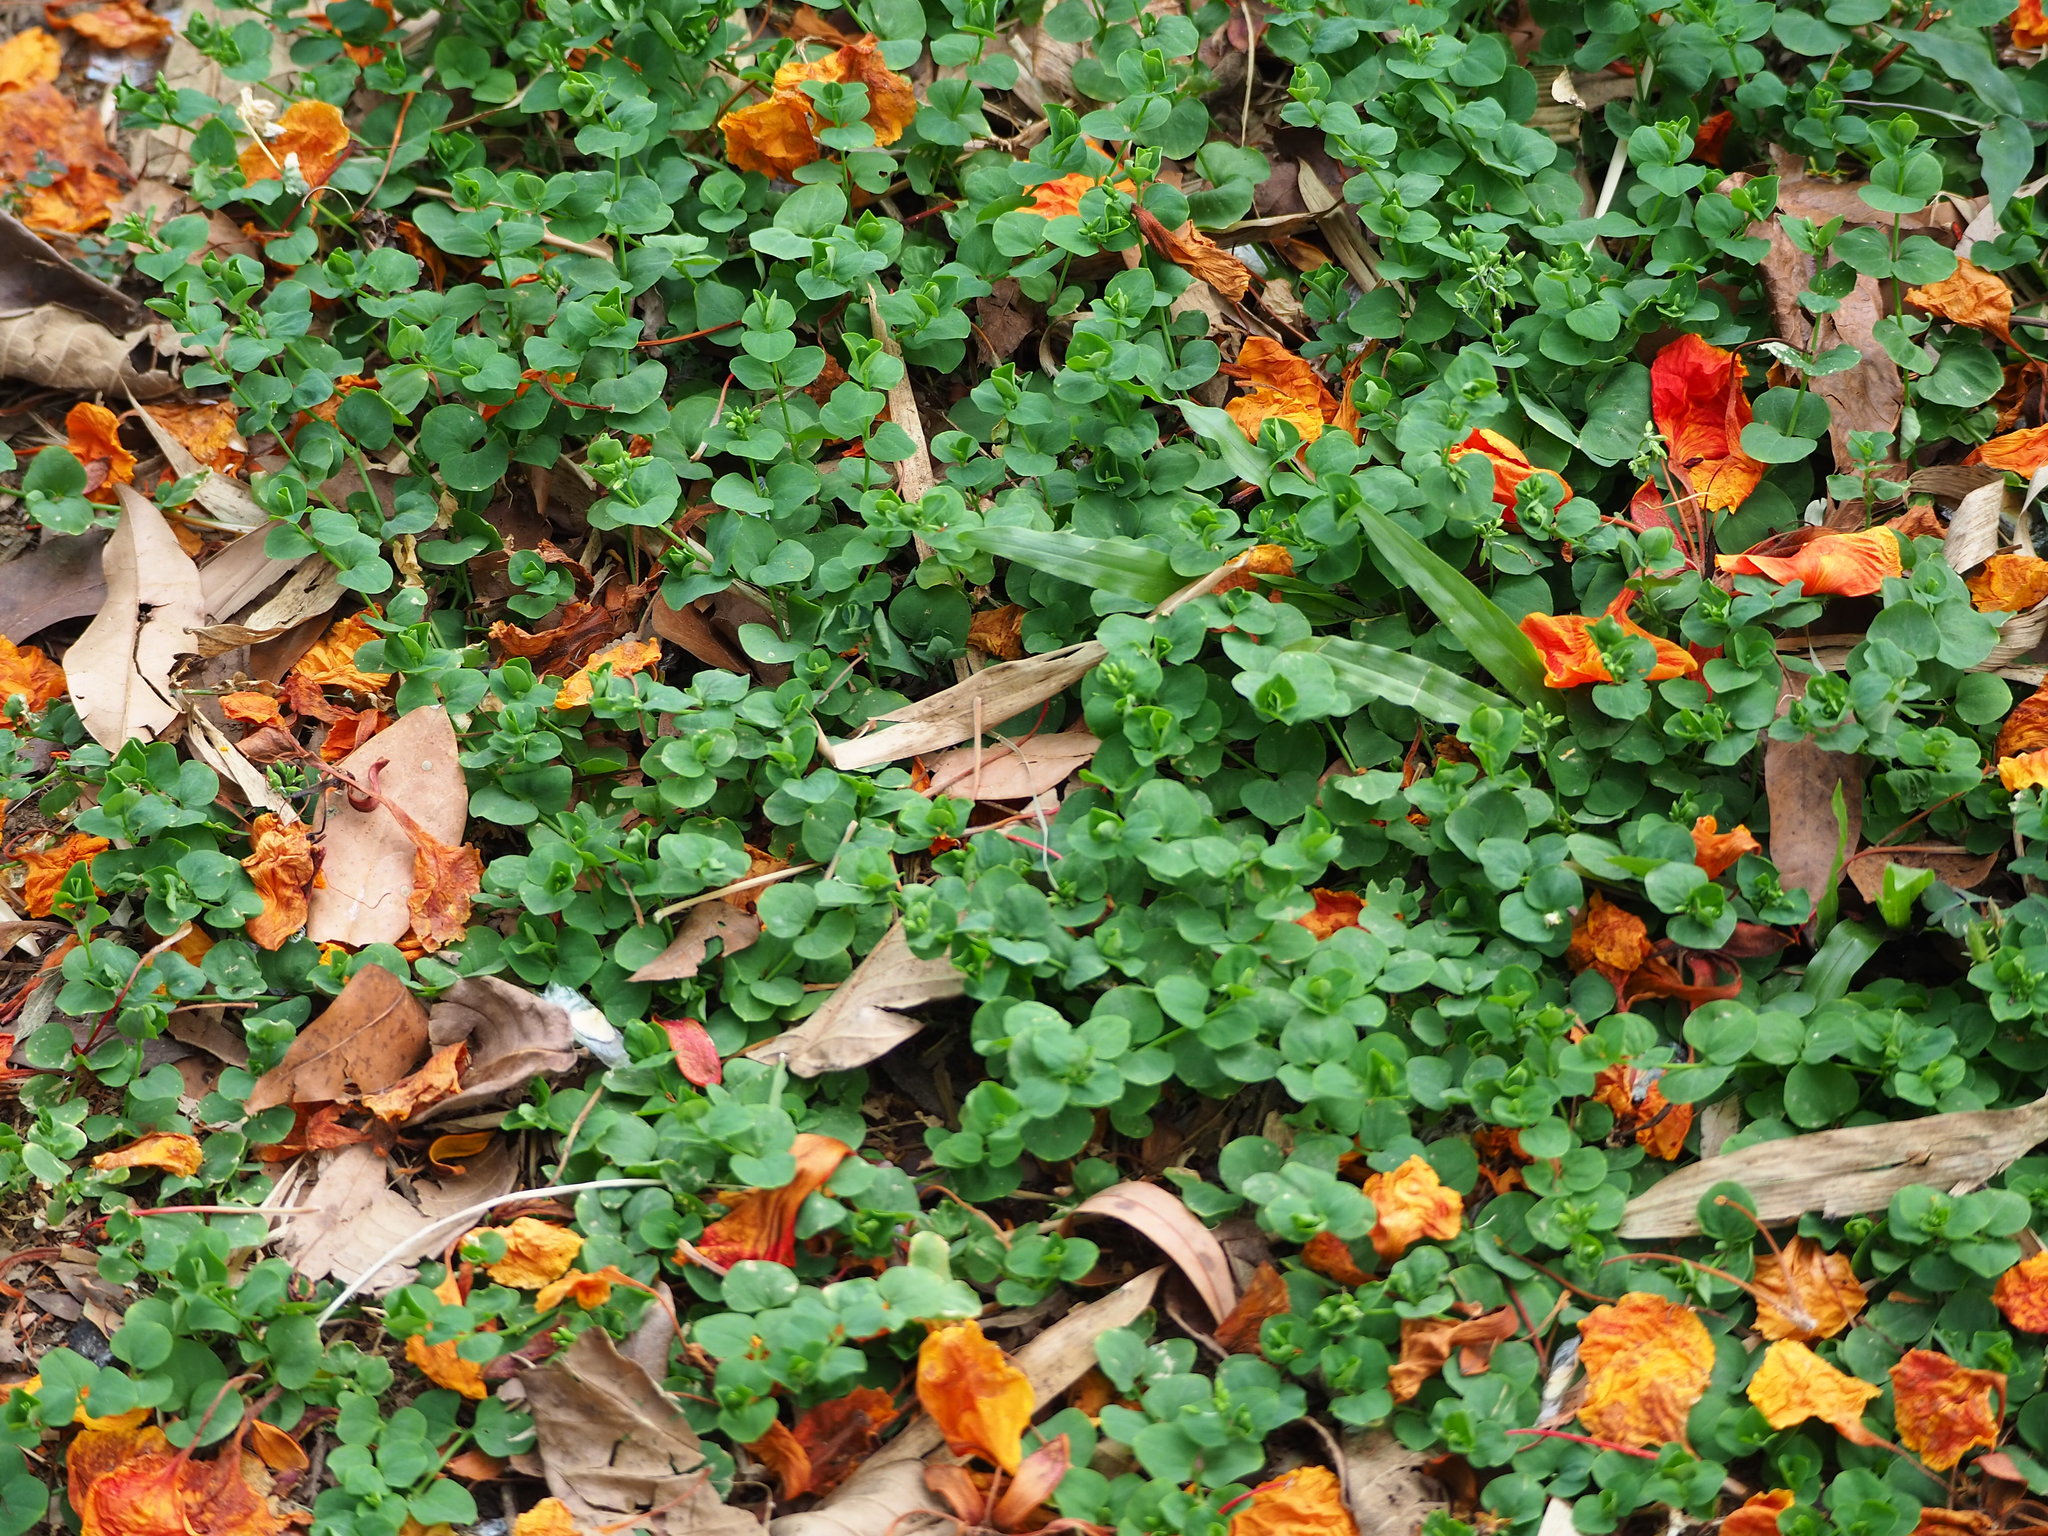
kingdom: Plantae
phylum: Tracheophyta
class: Magnoliopsida
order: Caryophyllales
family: Caryophyllaceae
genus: Drymaria
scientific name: Drymaria cordata
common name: Whitesnow
